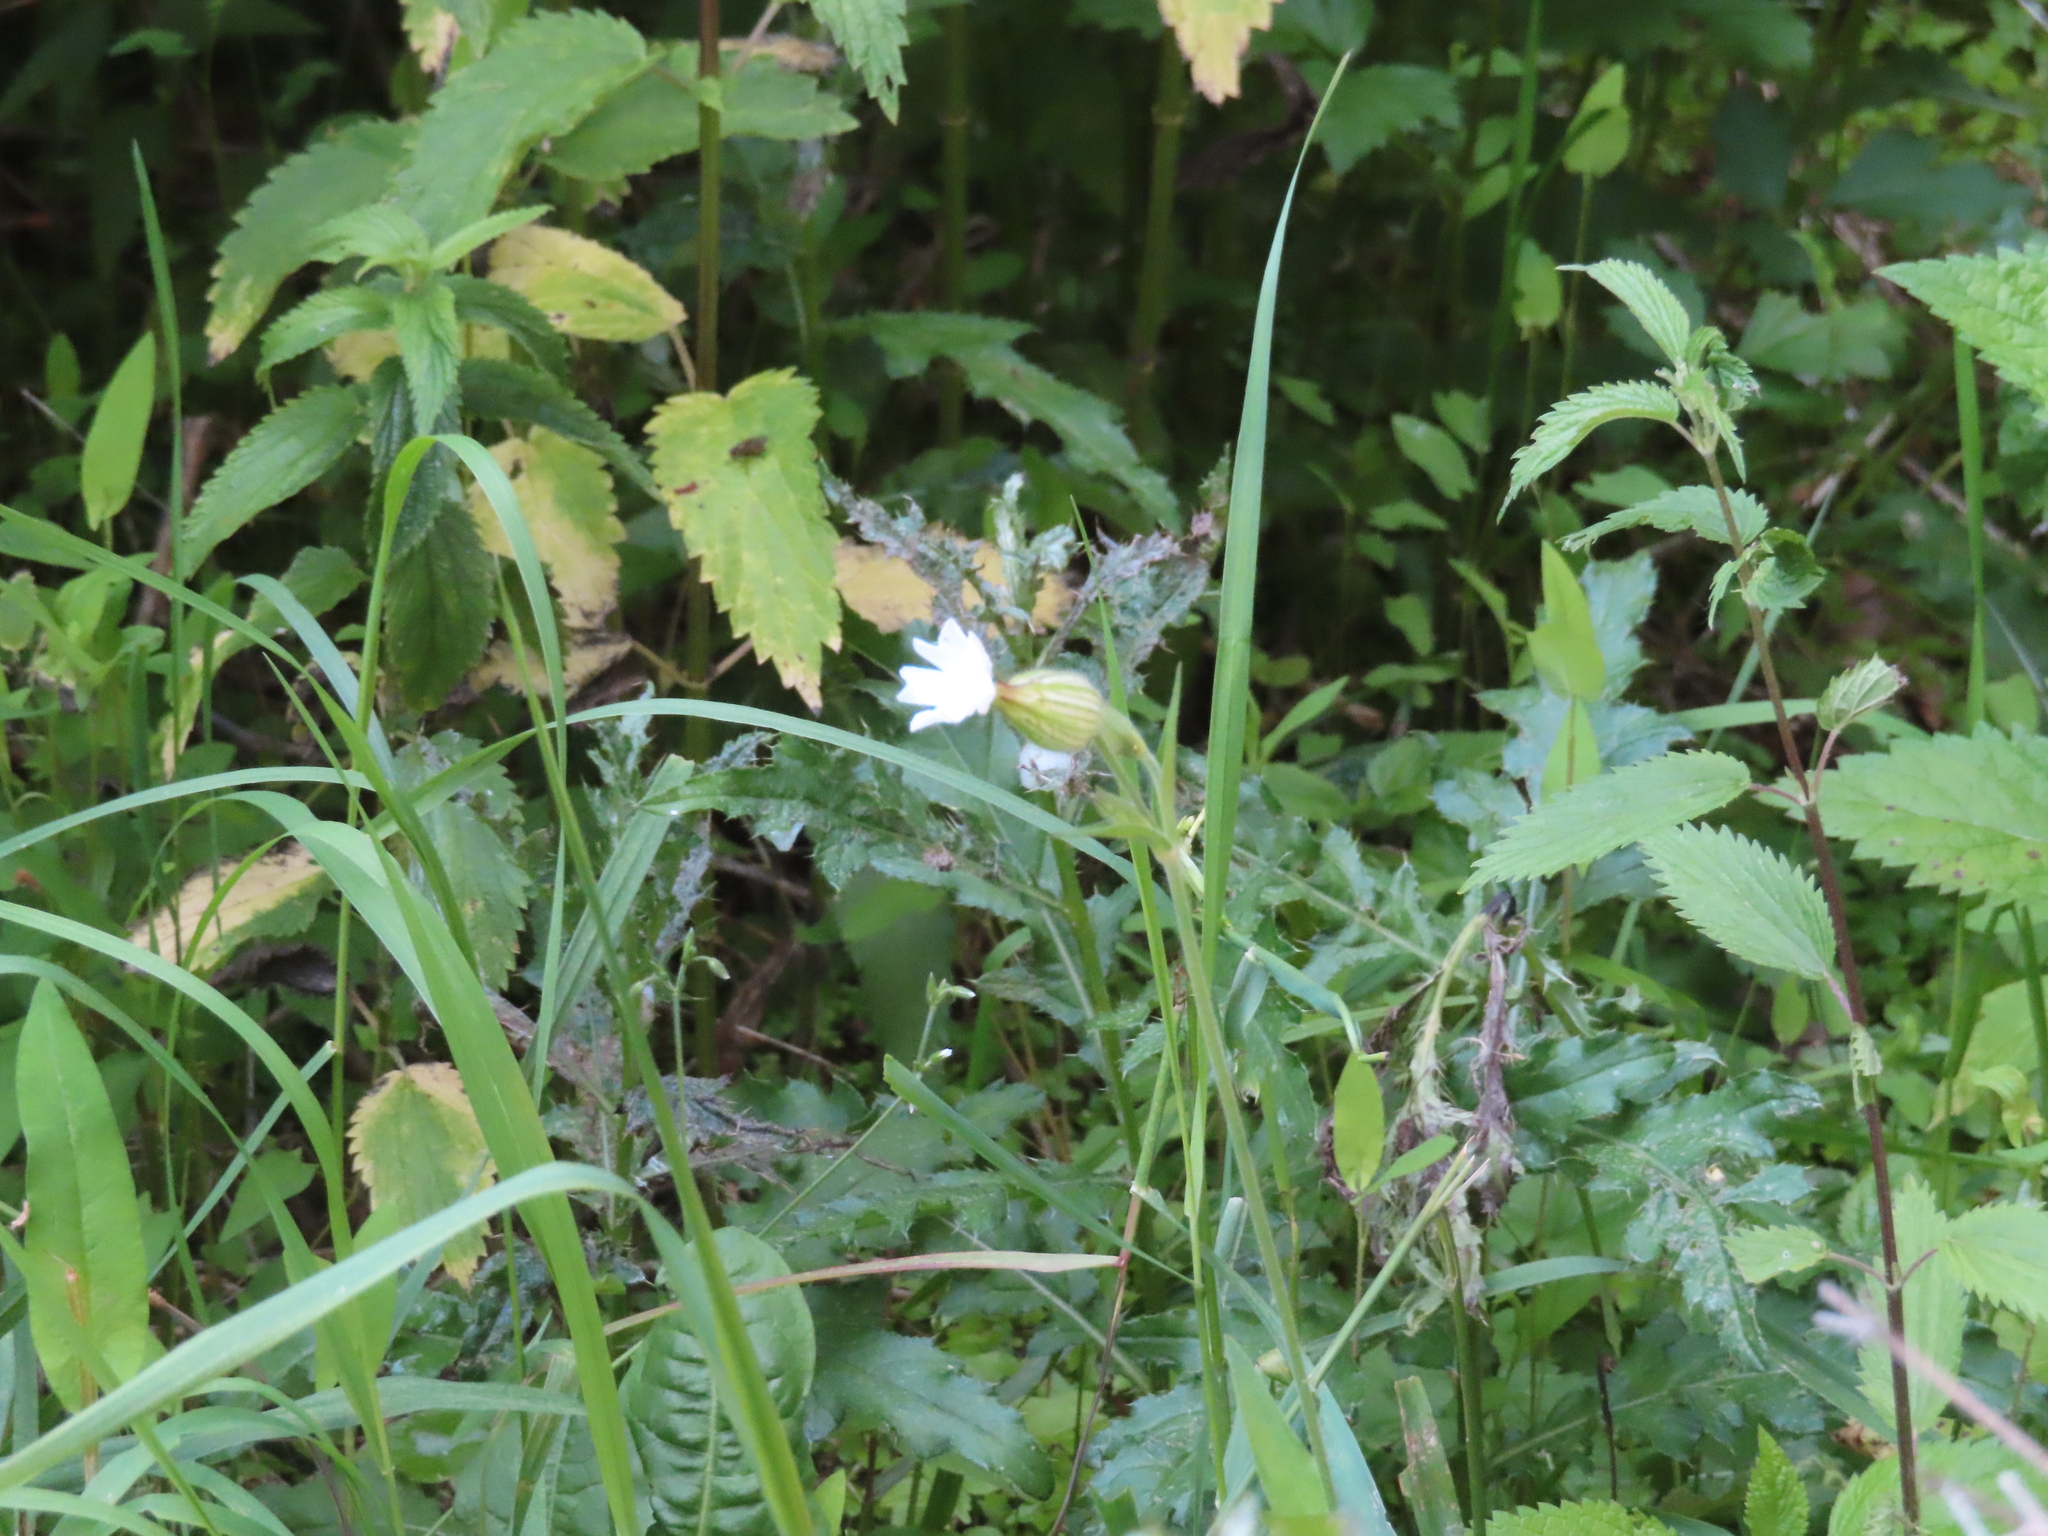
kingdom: Plantae
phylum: Tracheophyta
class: Magnoliopsida
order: Caryophyllales
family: Caryophyllaceae
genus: Silene
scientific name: Silene latifolia
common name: White campion
